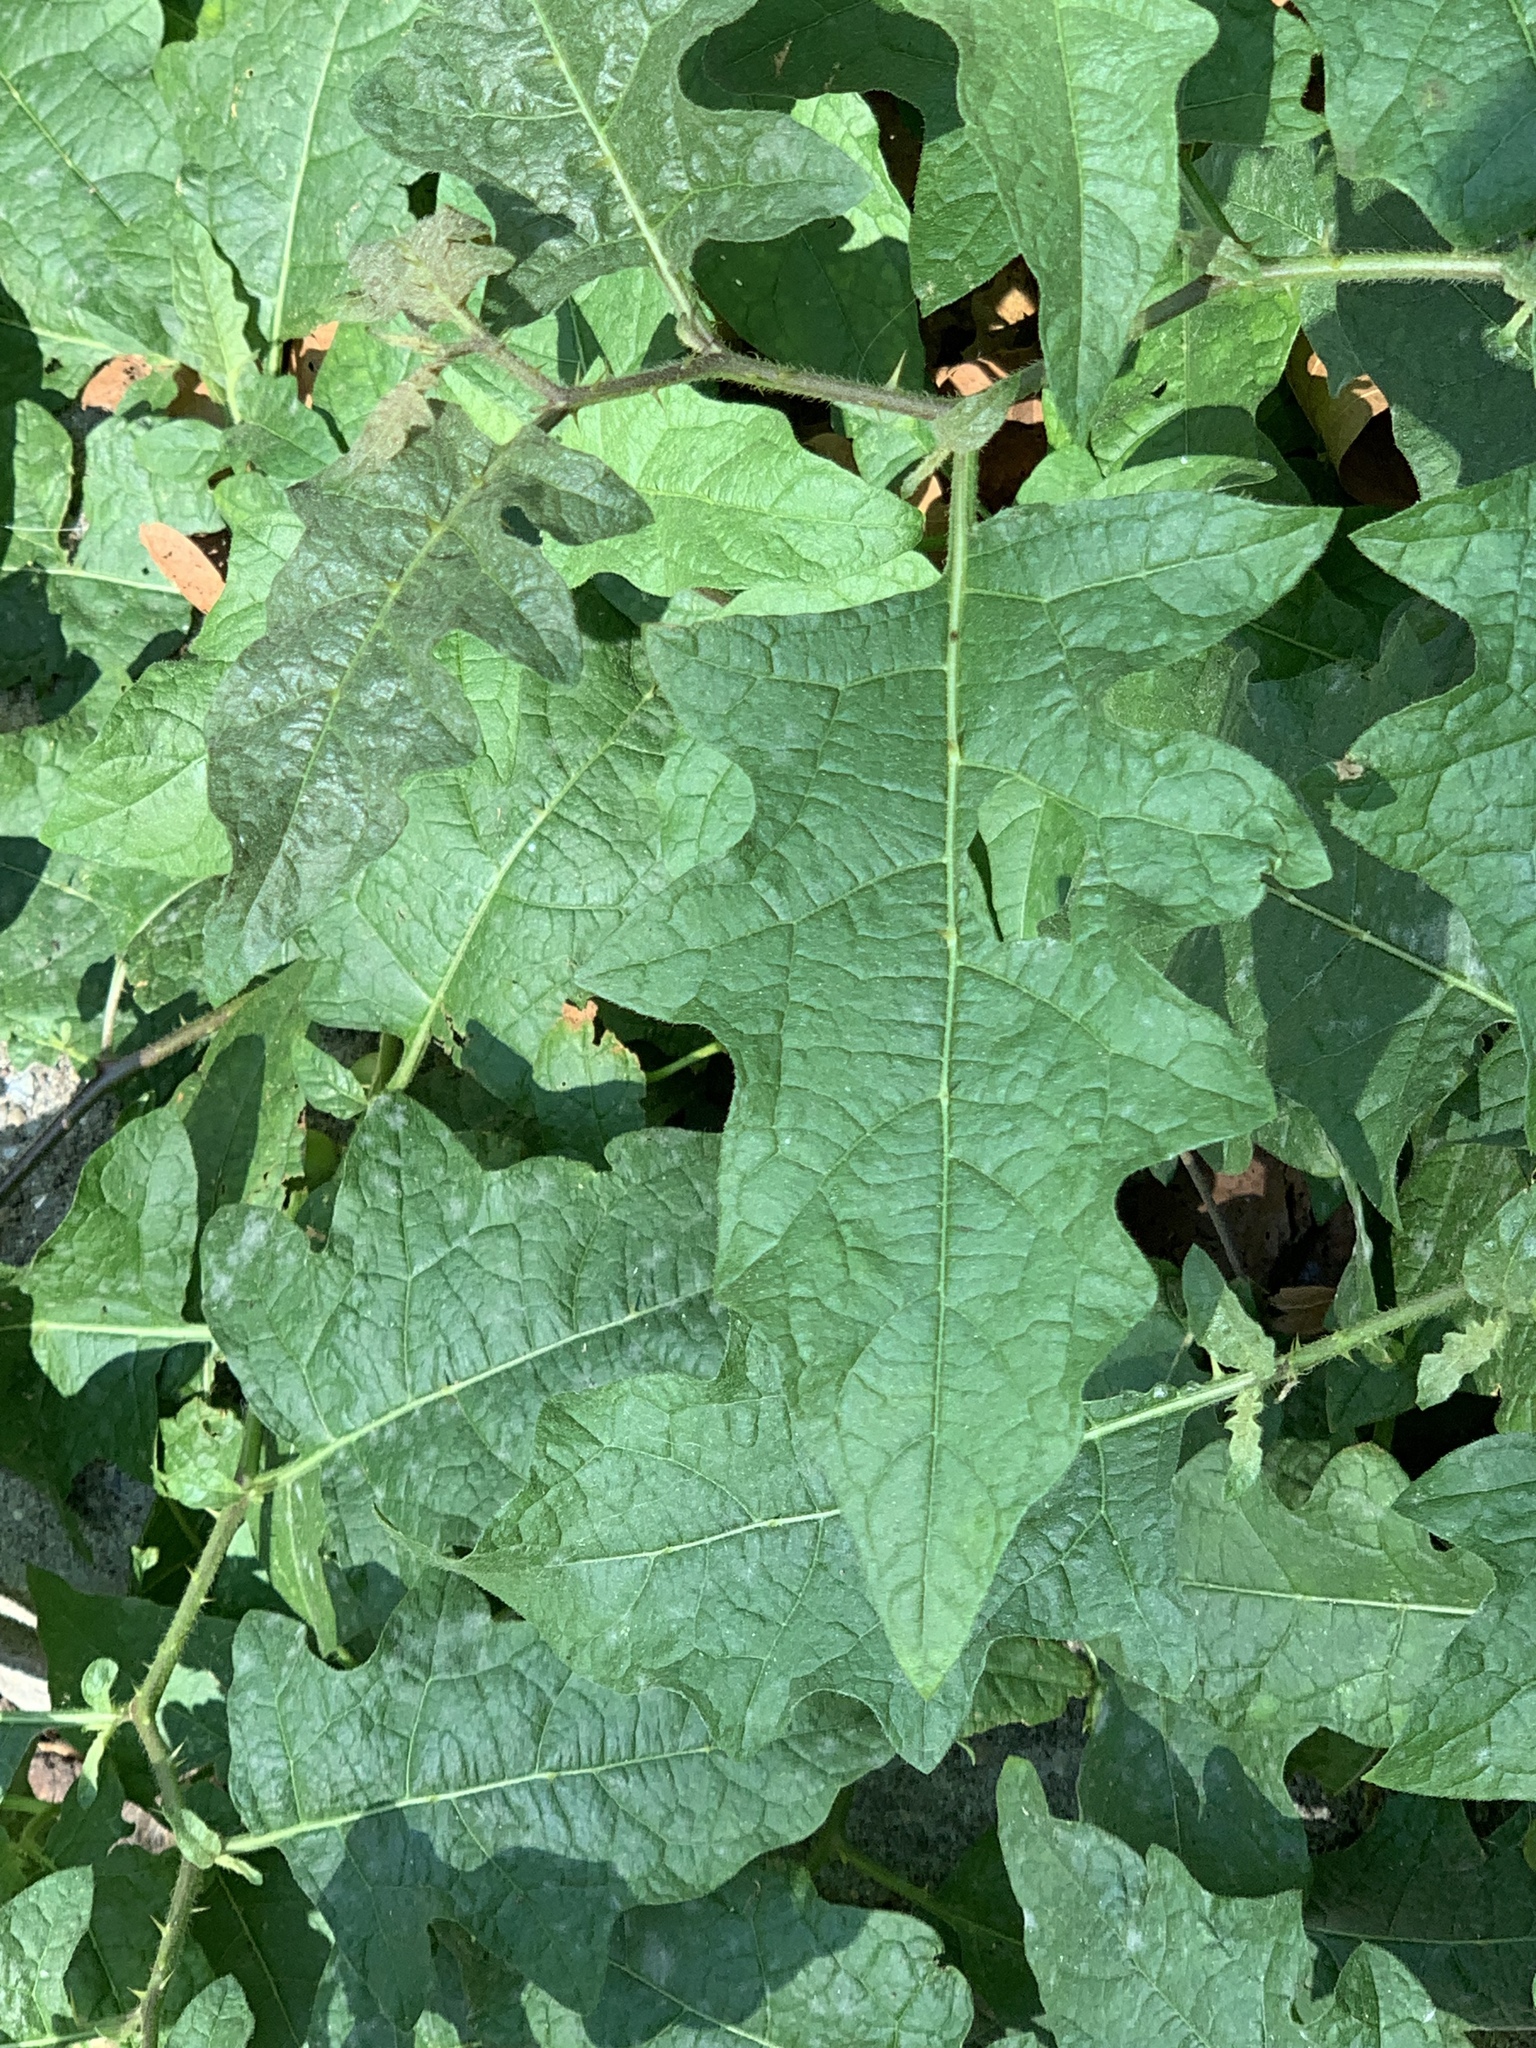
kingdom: Plantae
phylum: Tracheophyta
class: Magnoliopsida
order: Solanales
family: Solanaceae
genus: Solanum
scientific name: Solanum carolinense
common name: Horse-nettle
